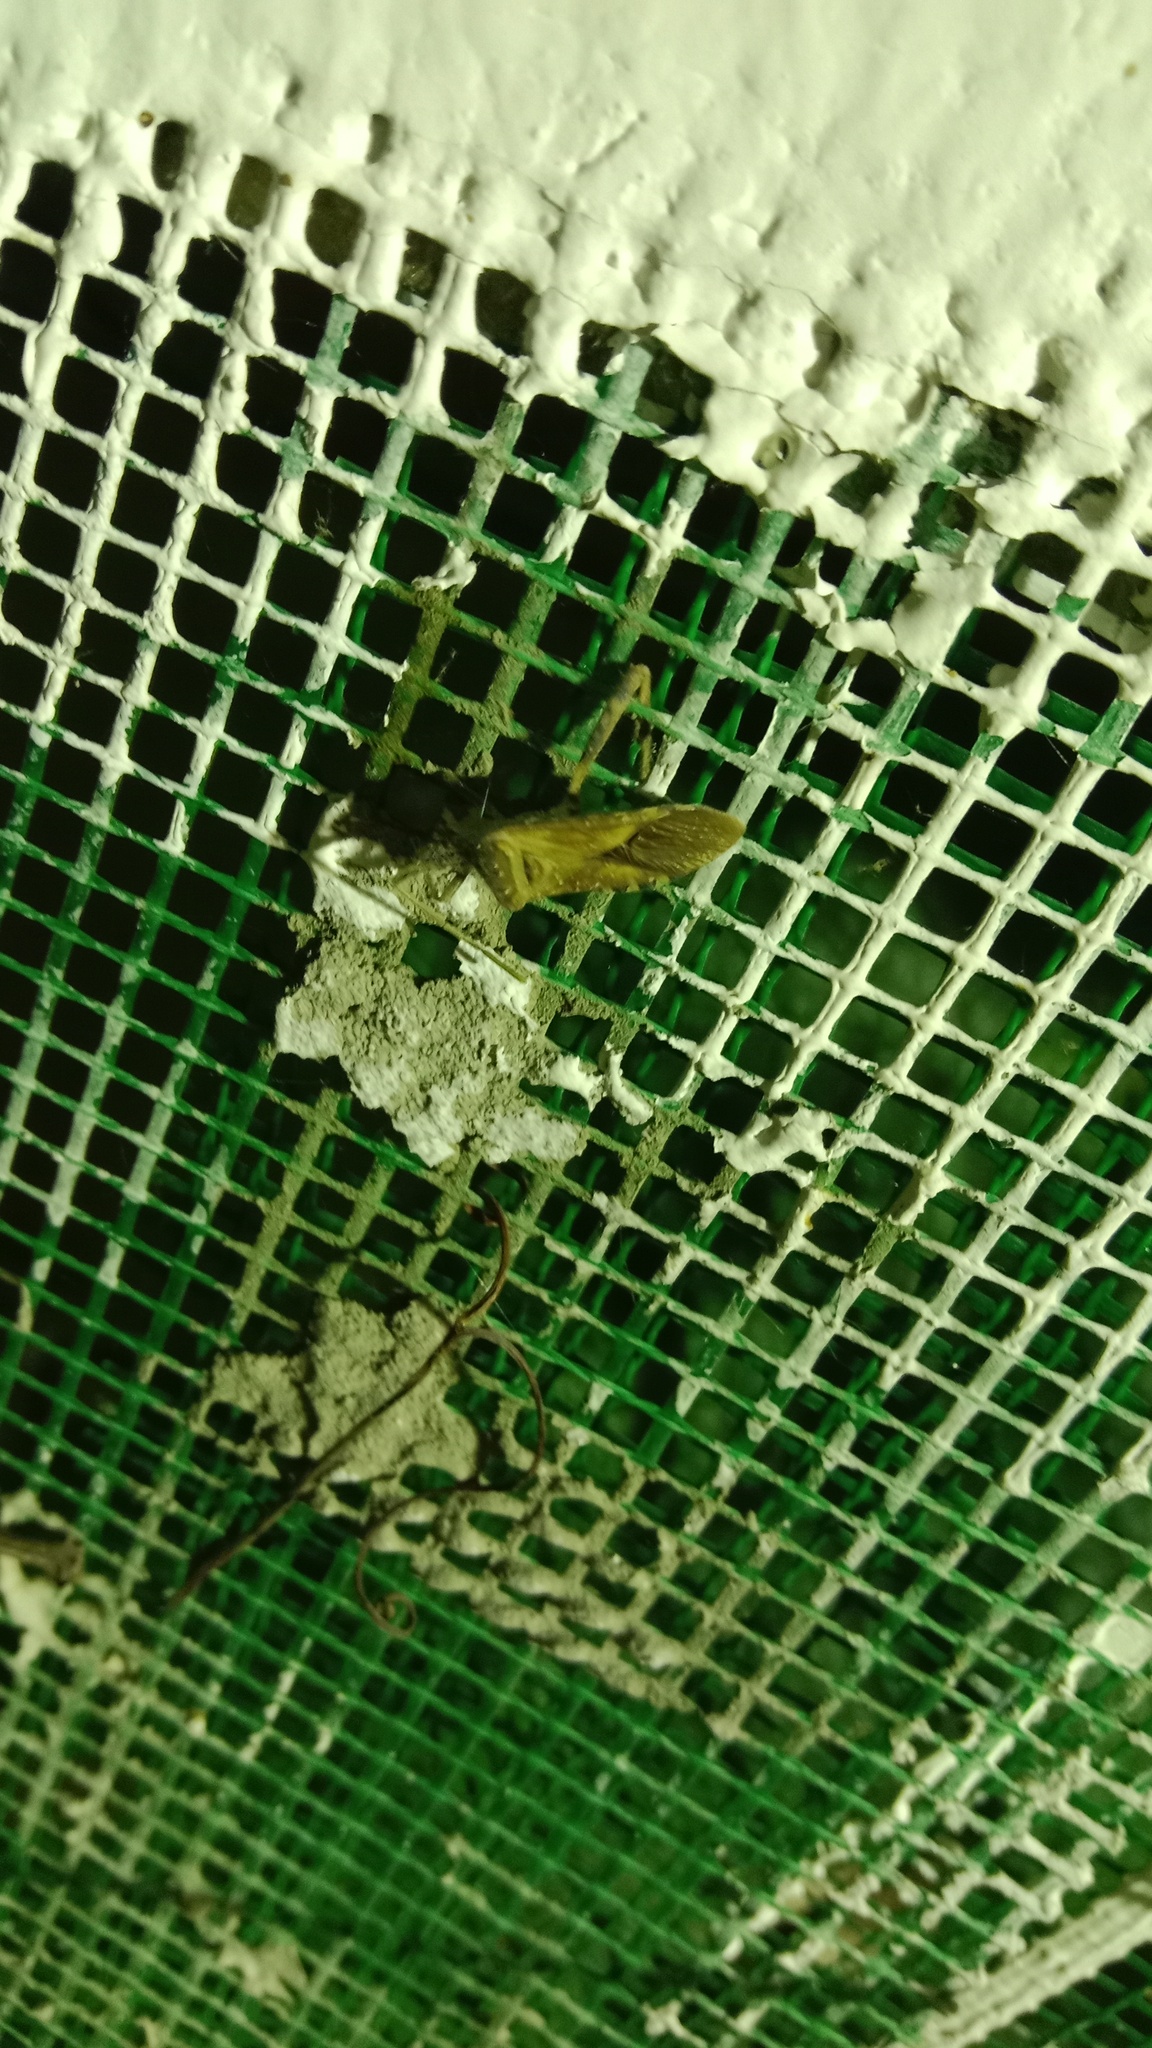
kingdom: Animalia
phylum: Arthropoda
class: Insecta
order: Hemiptera
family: Coreidae
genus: Leptoglossus
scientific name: Leptoglossus occidentalis
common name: Western conifer-seed bug
